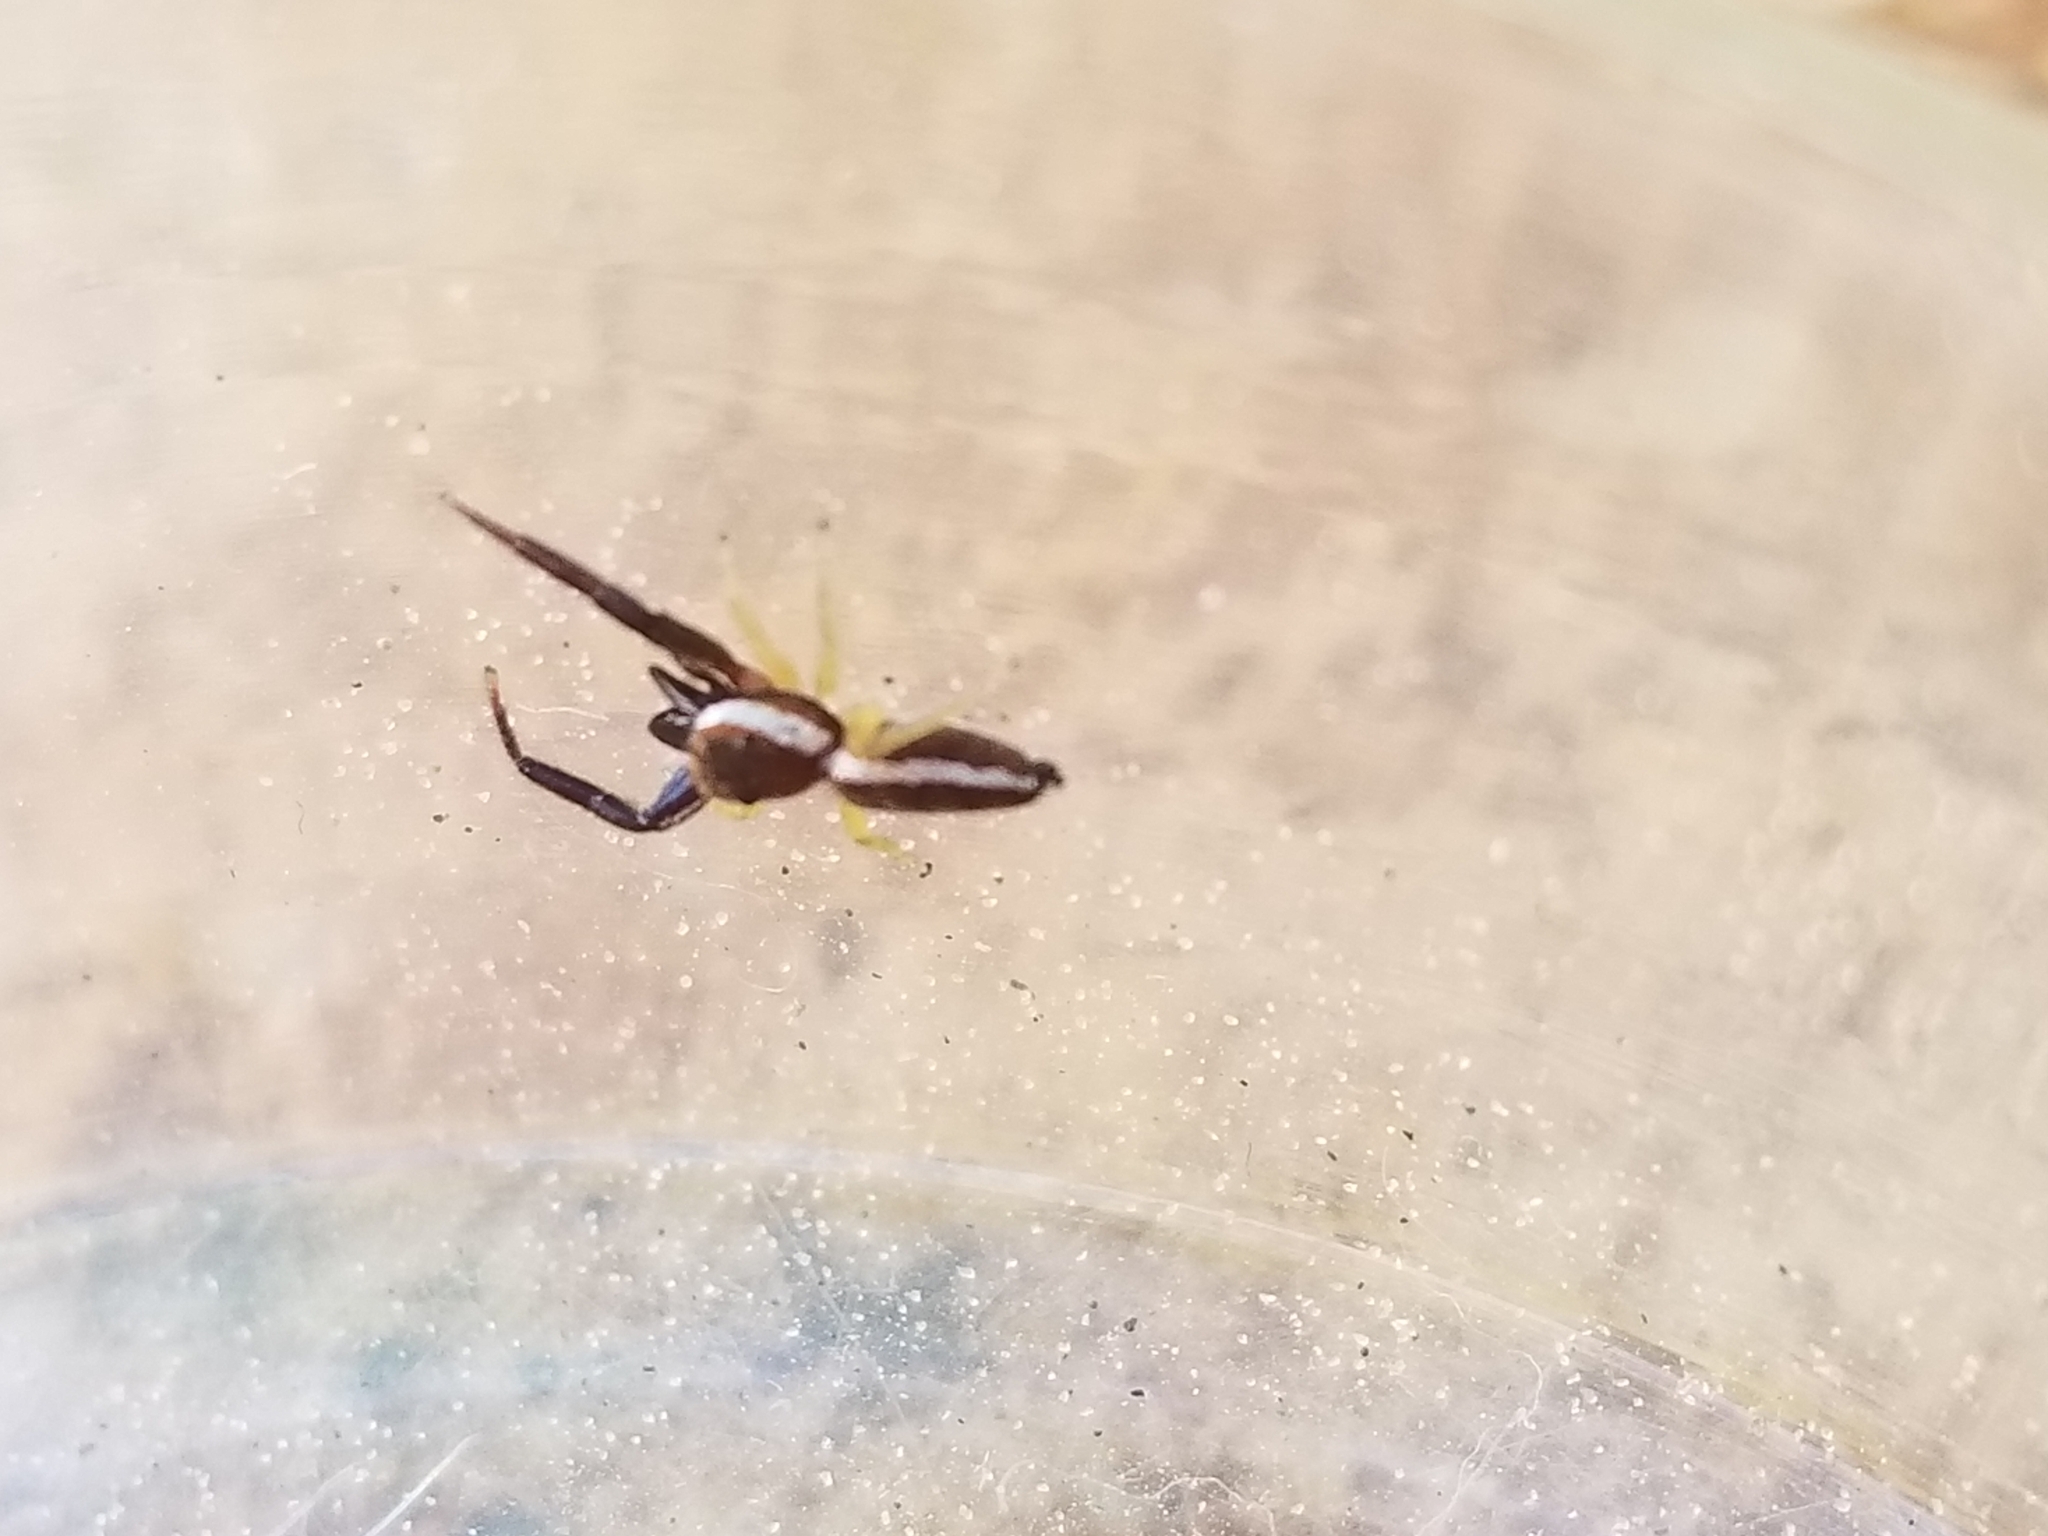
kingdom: Animalia
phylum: Arthropoda
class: Arachnida
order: Araneae
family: Salticidae
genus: Hentzia
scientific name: Hentzia palmarum
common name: Common hentz jumping spider
